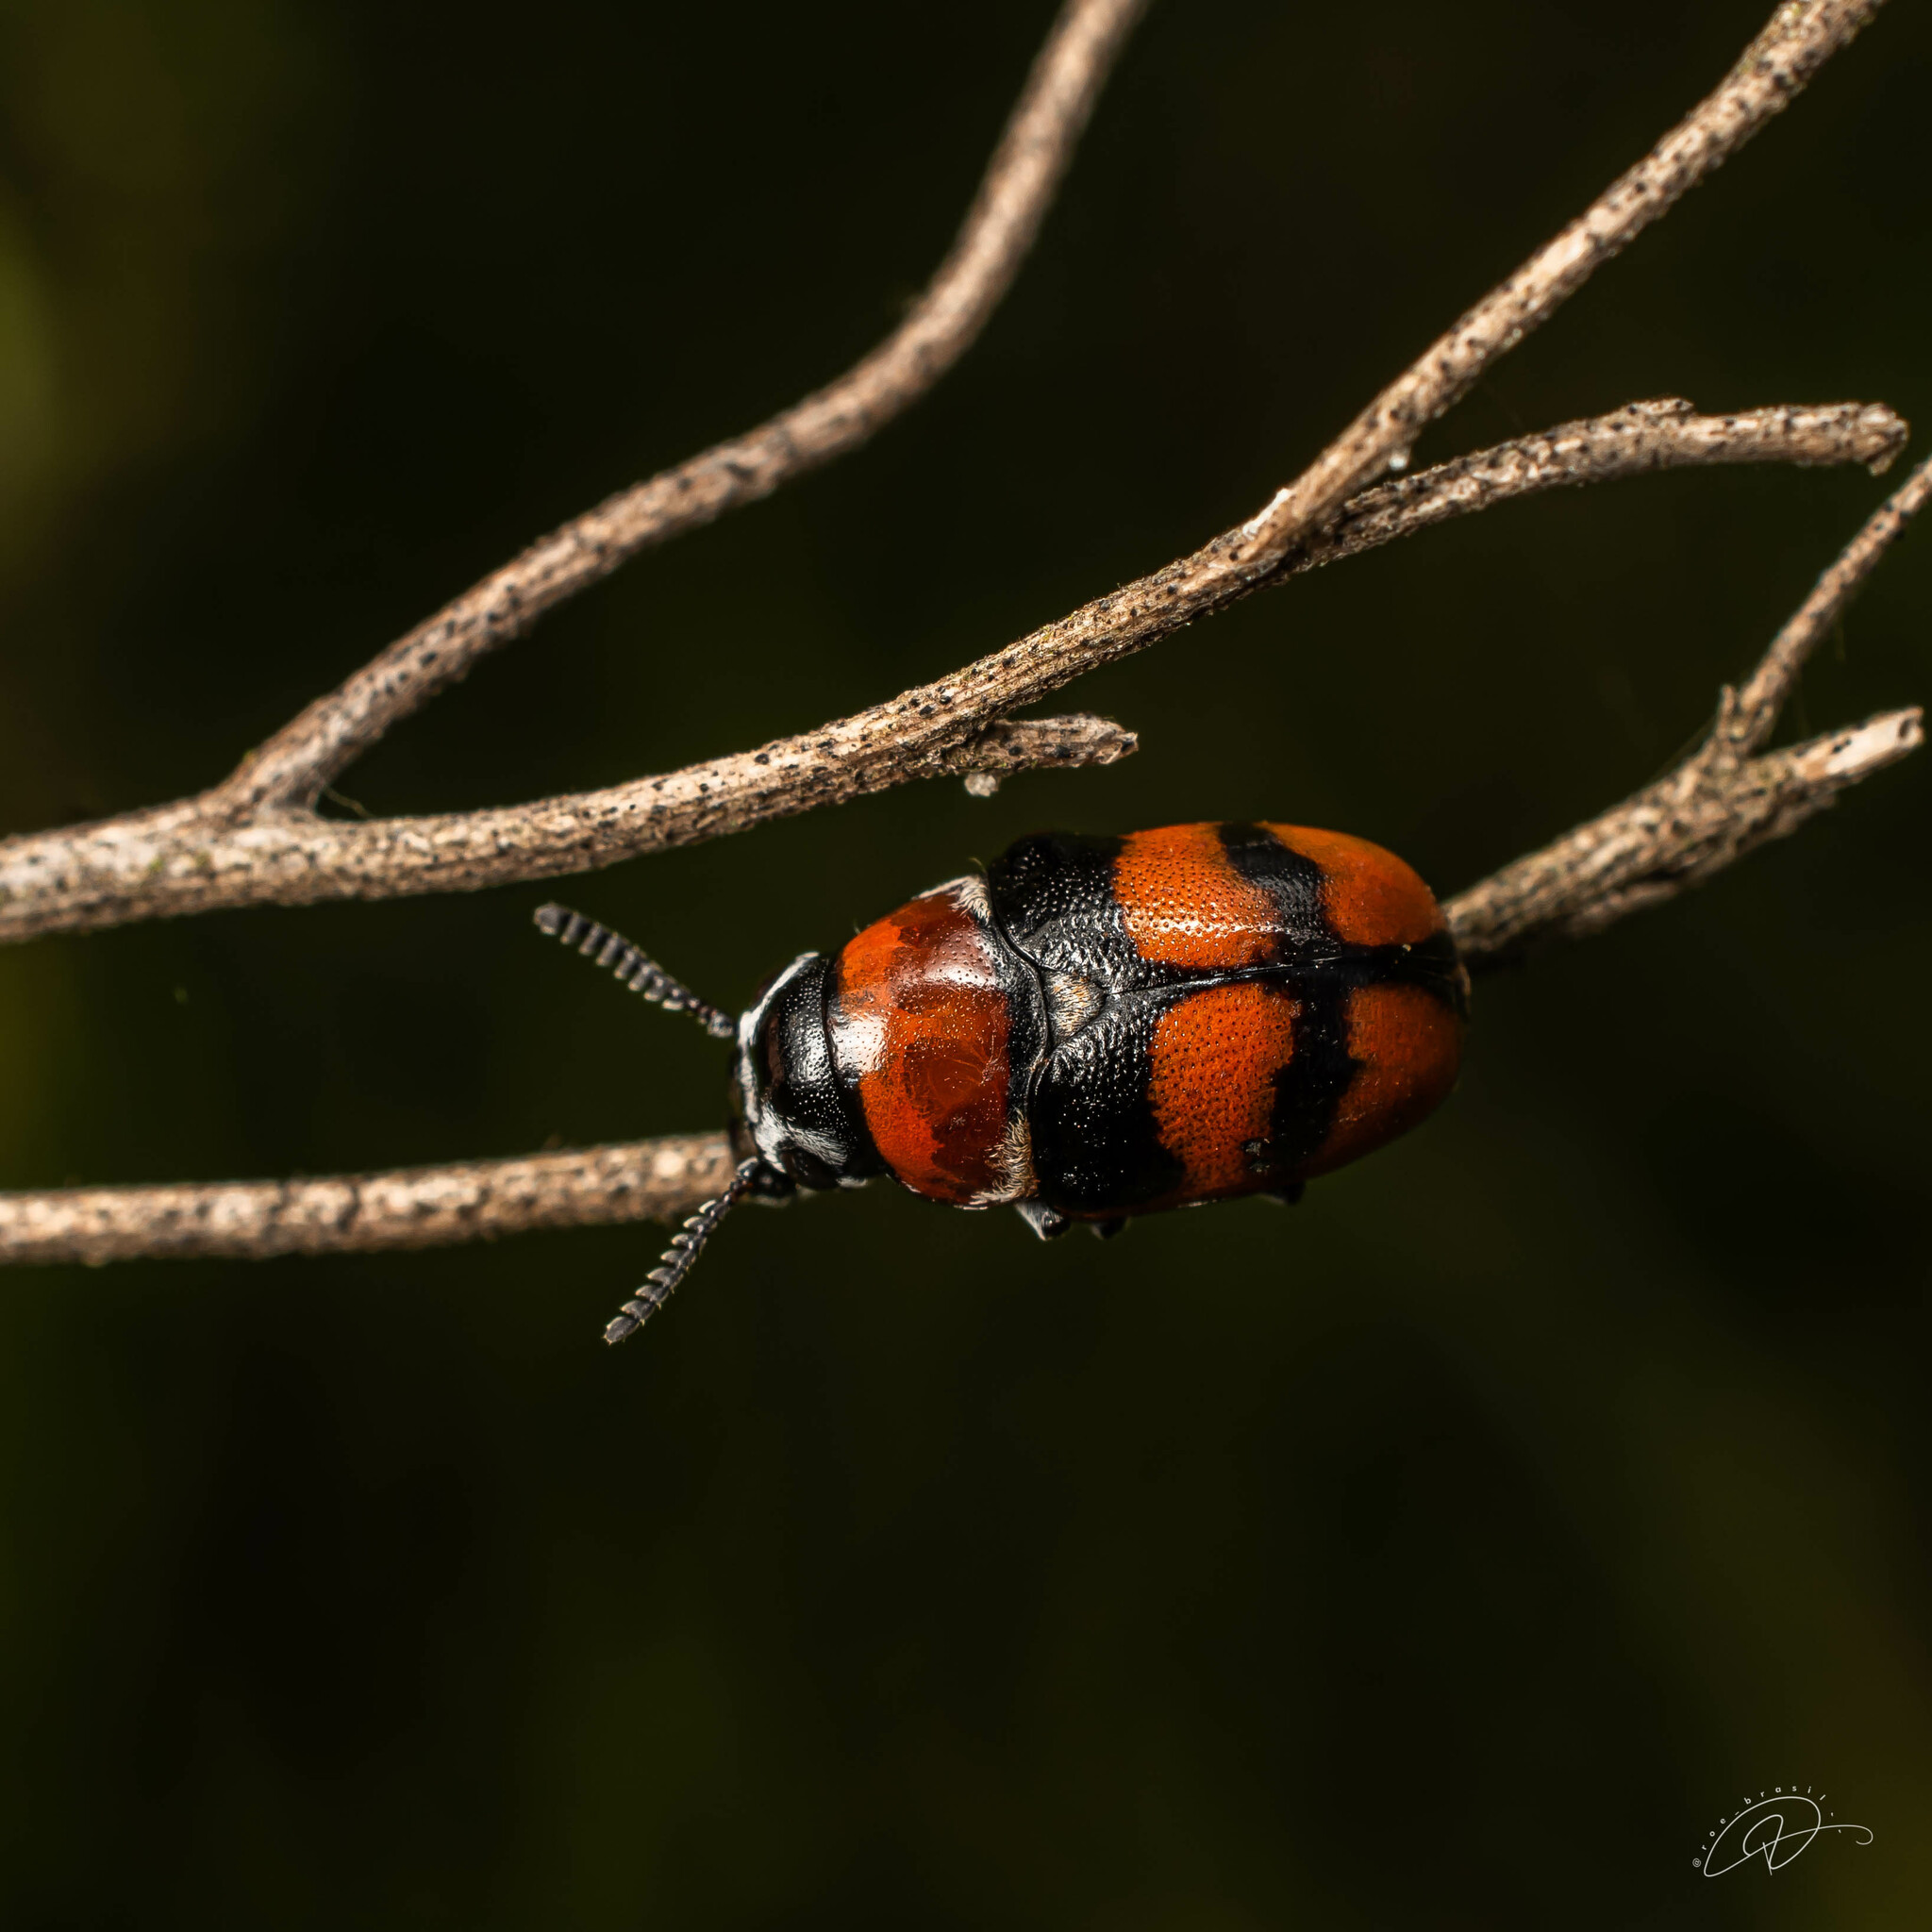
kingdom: Animalia
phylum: Arthropoda
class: Insecta
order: Coleoptera
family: Chrysomelidae
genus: Megalostomis
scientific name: Megalostomis
